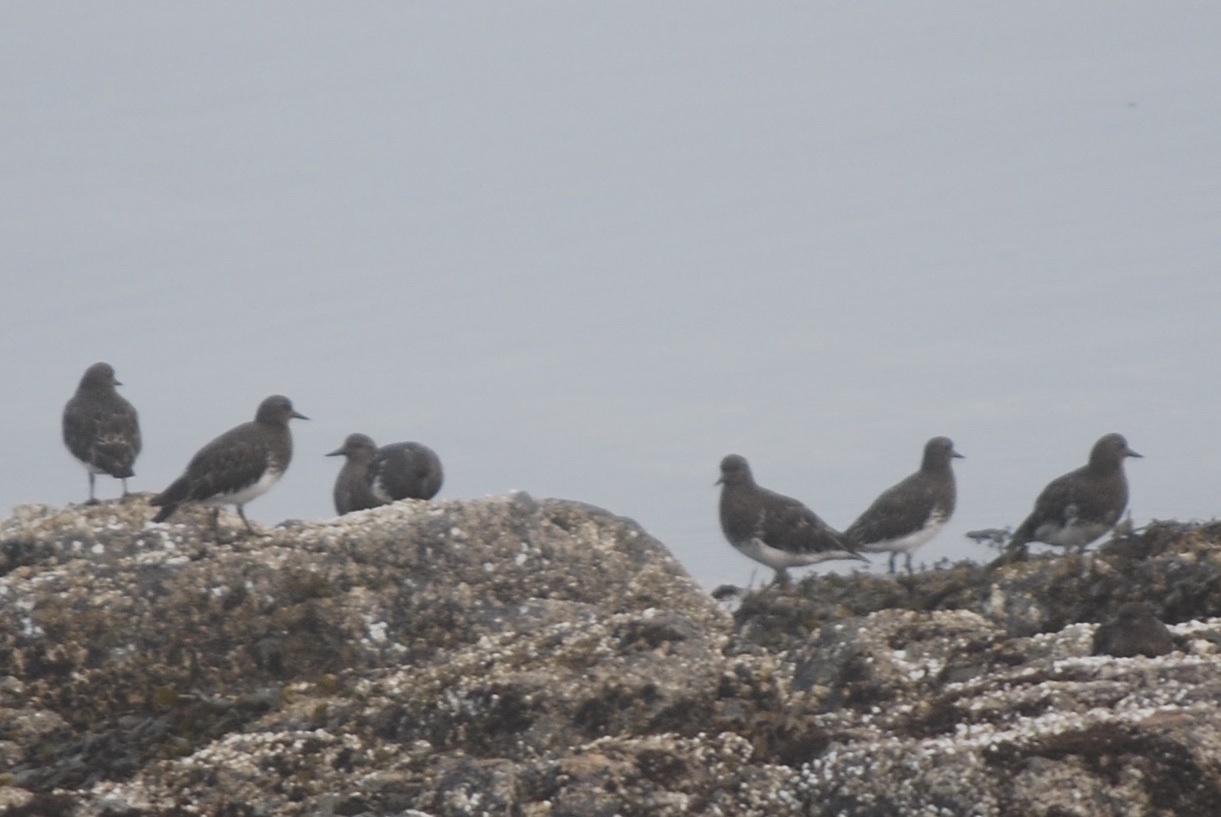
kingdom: Animalia
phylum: Chordata
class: Aves
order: Charadriiformes
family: Scolopacidae
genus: Arenaria
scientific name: Arenaria melanocephala
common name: Black turnstone
